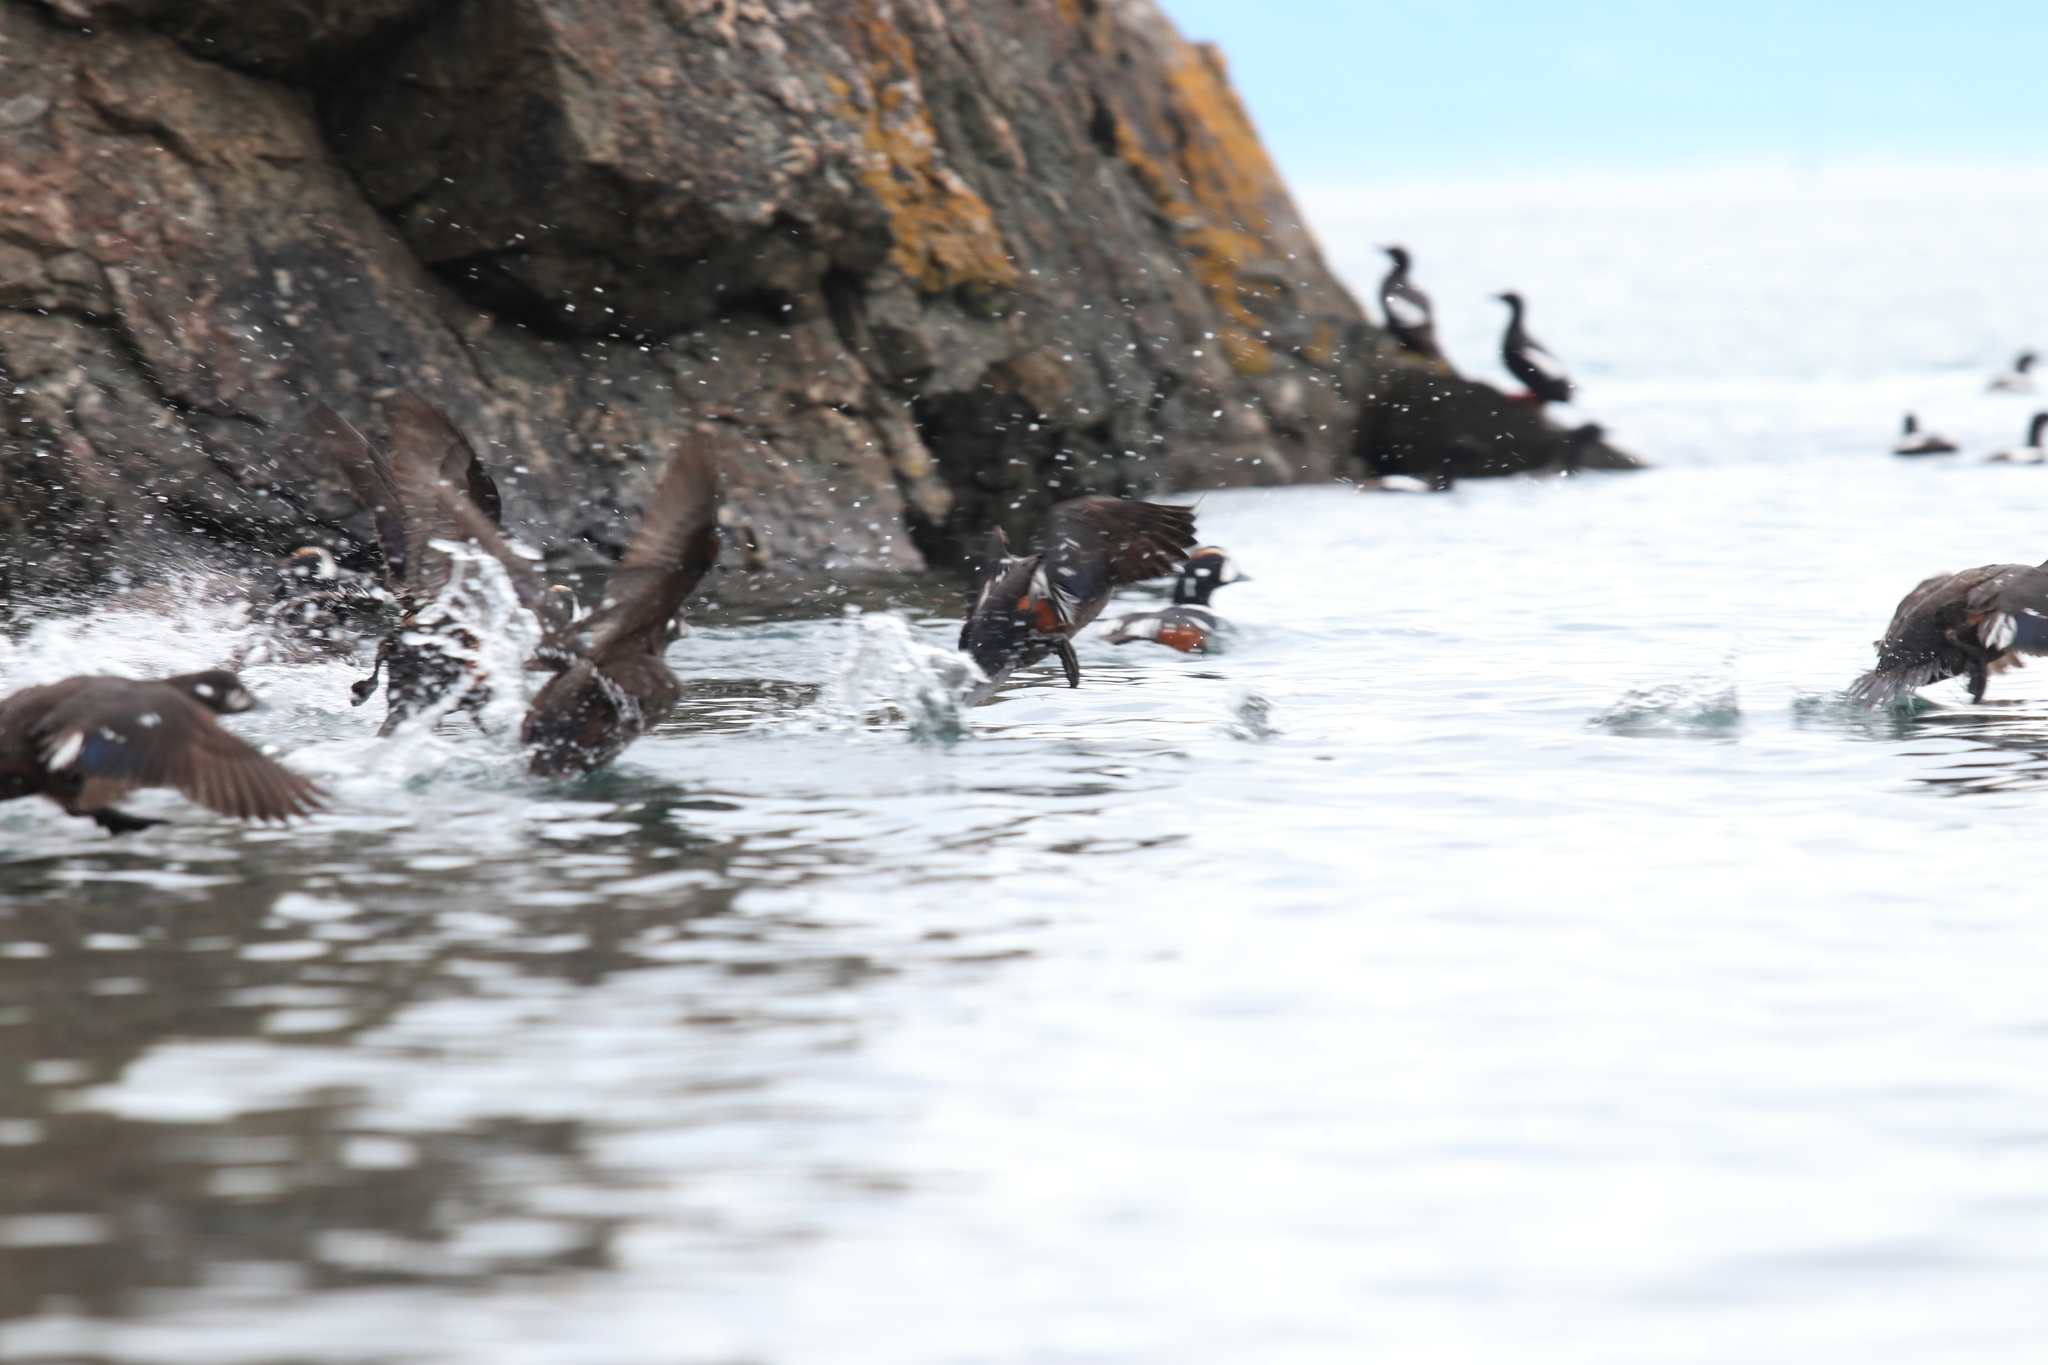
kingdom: Animalia
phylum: Chordata
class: Aves
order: Anseriformes
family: Anatidae
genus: Histrionicus
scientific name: Histrionicus histrionicus
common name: Harlequin duck
